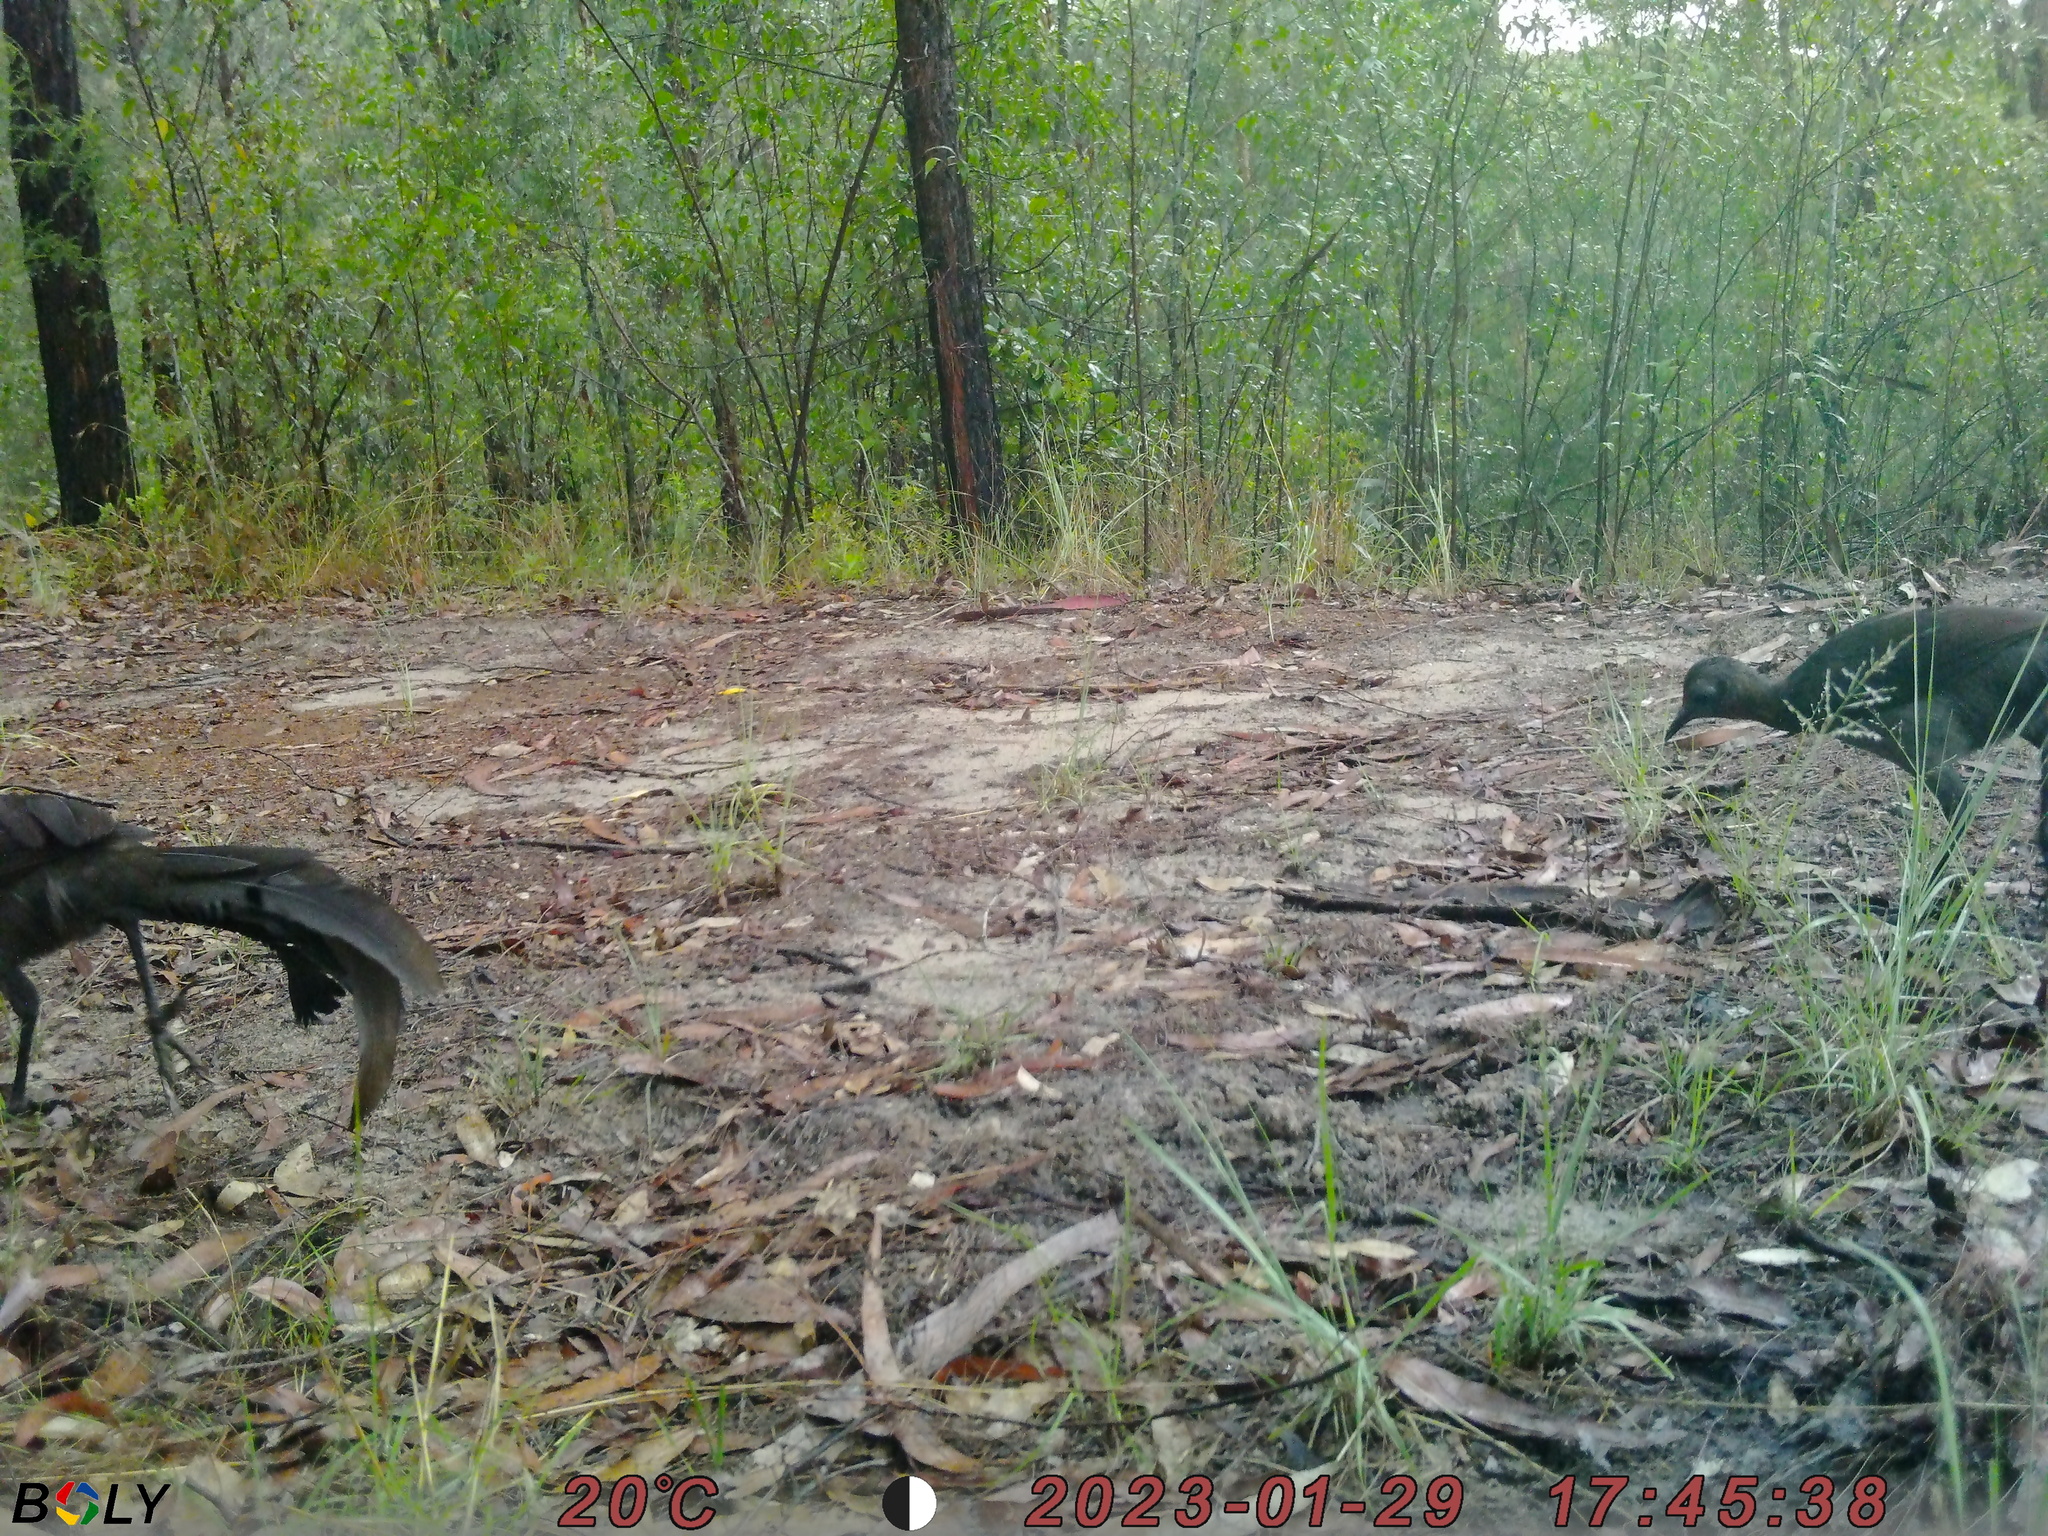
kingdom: Animalia
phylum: Chordata
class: Aves
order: Passeriformes
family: Menuridae
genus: Menura
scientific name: Menura novaehollandiae
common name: Superb lyrebird
